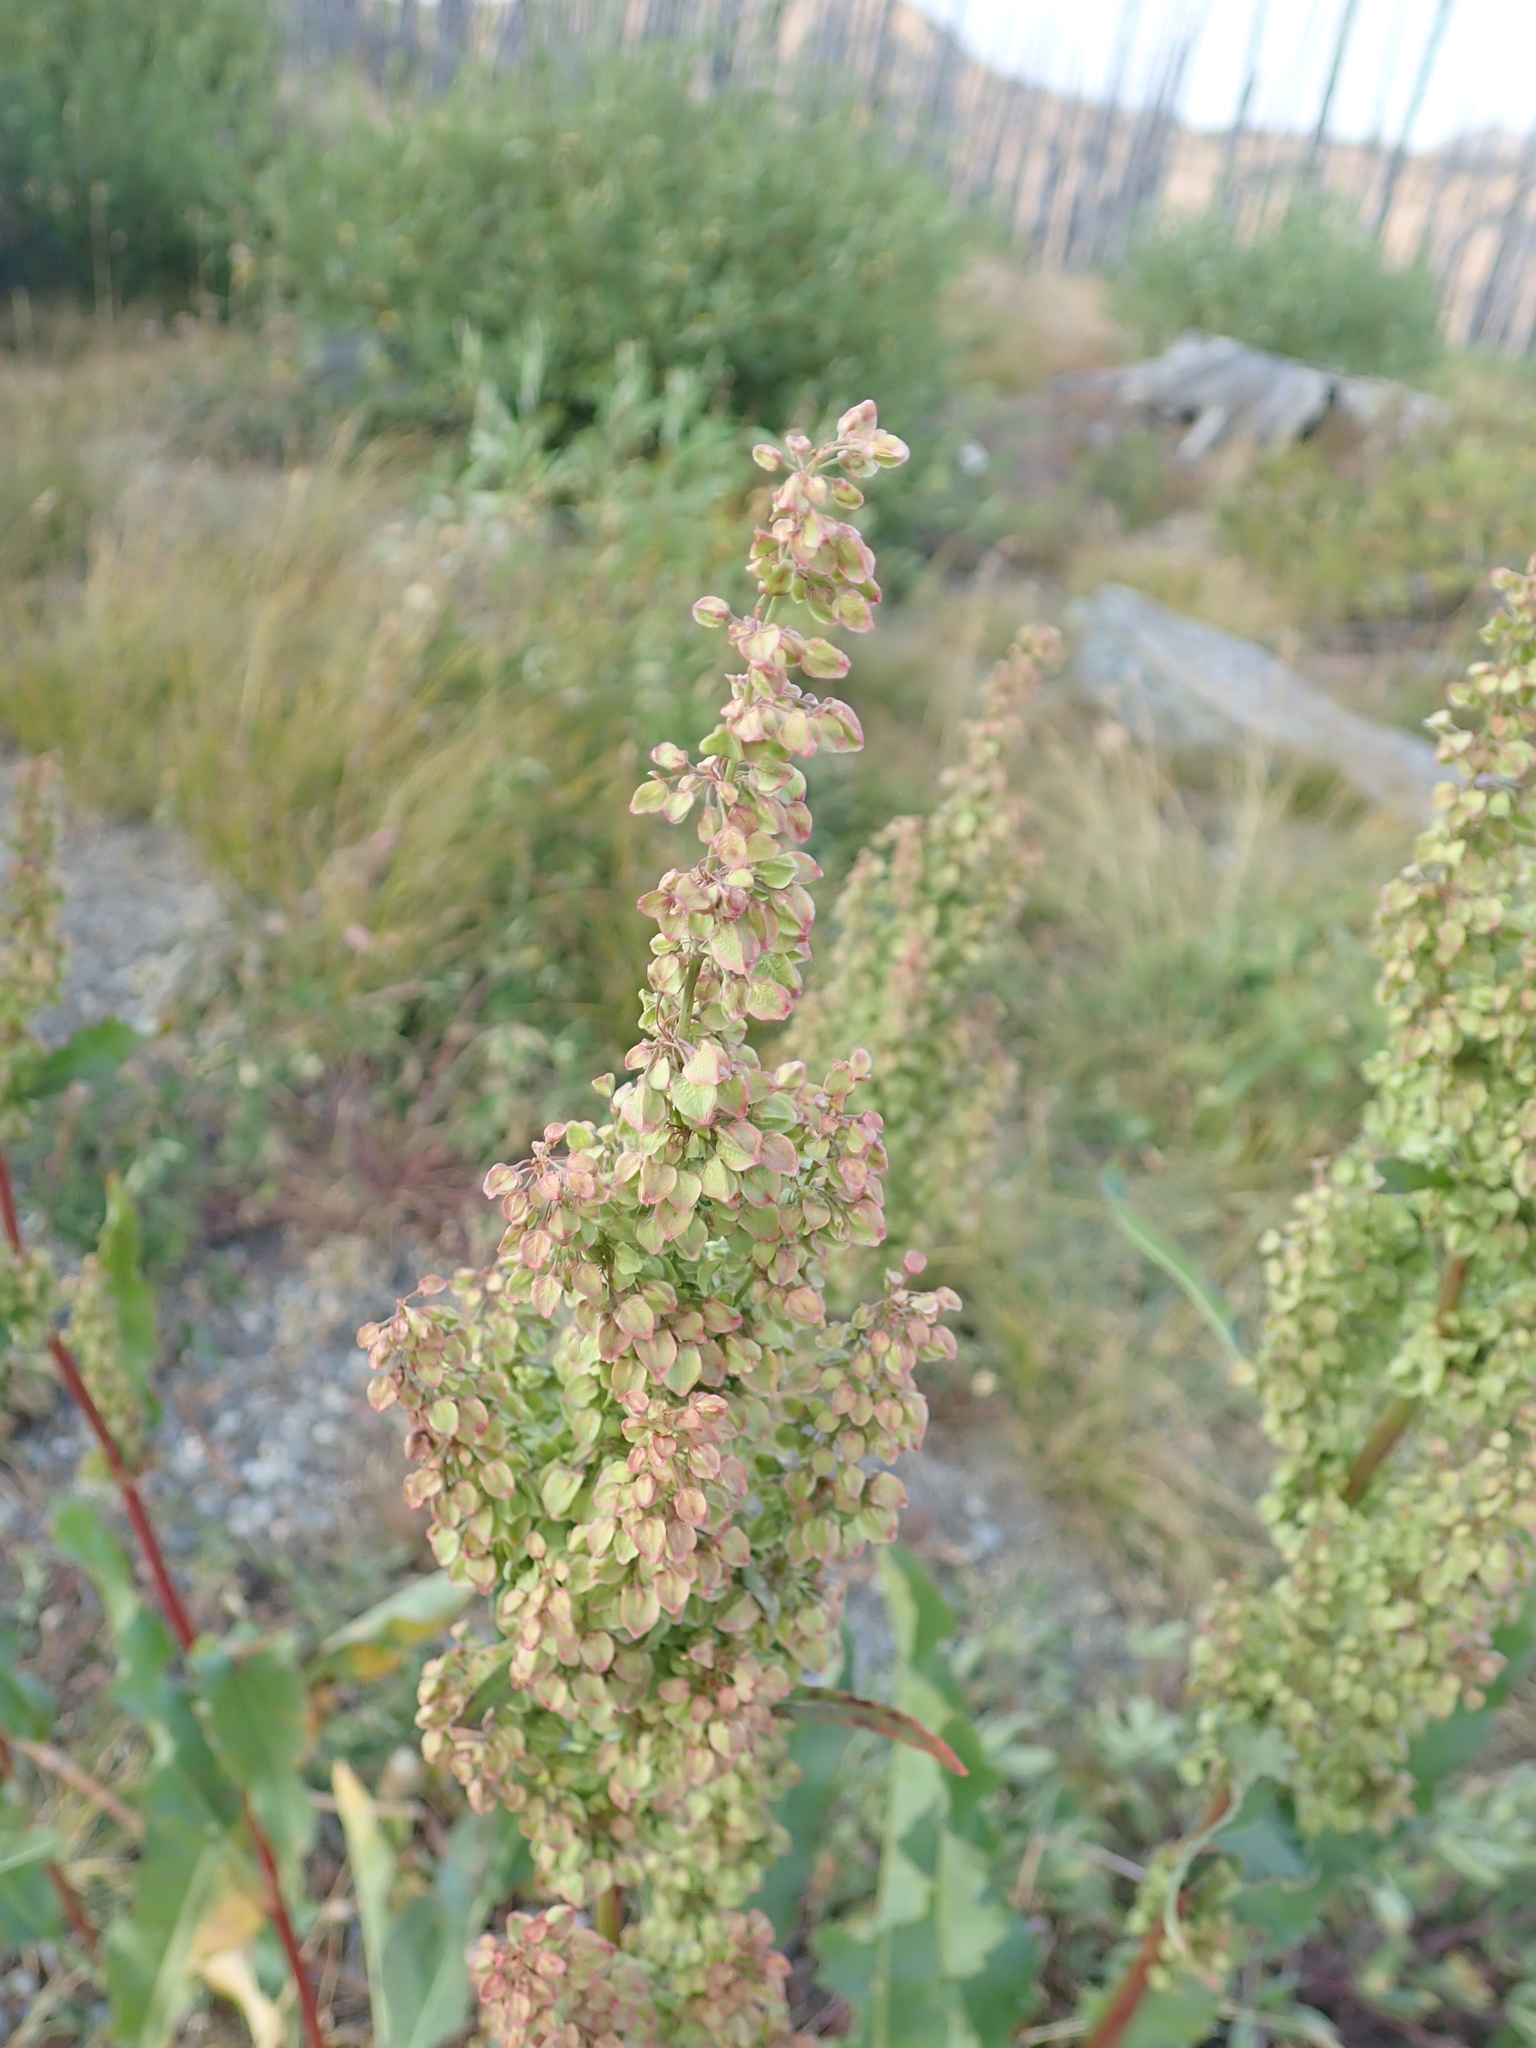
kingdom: Plantae
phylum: Tracheophyta
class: Magnoliopsida
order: Caryophyllales
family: Polygonaceae
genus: Rumex
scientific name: Rumex crispus
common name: Curled dock
